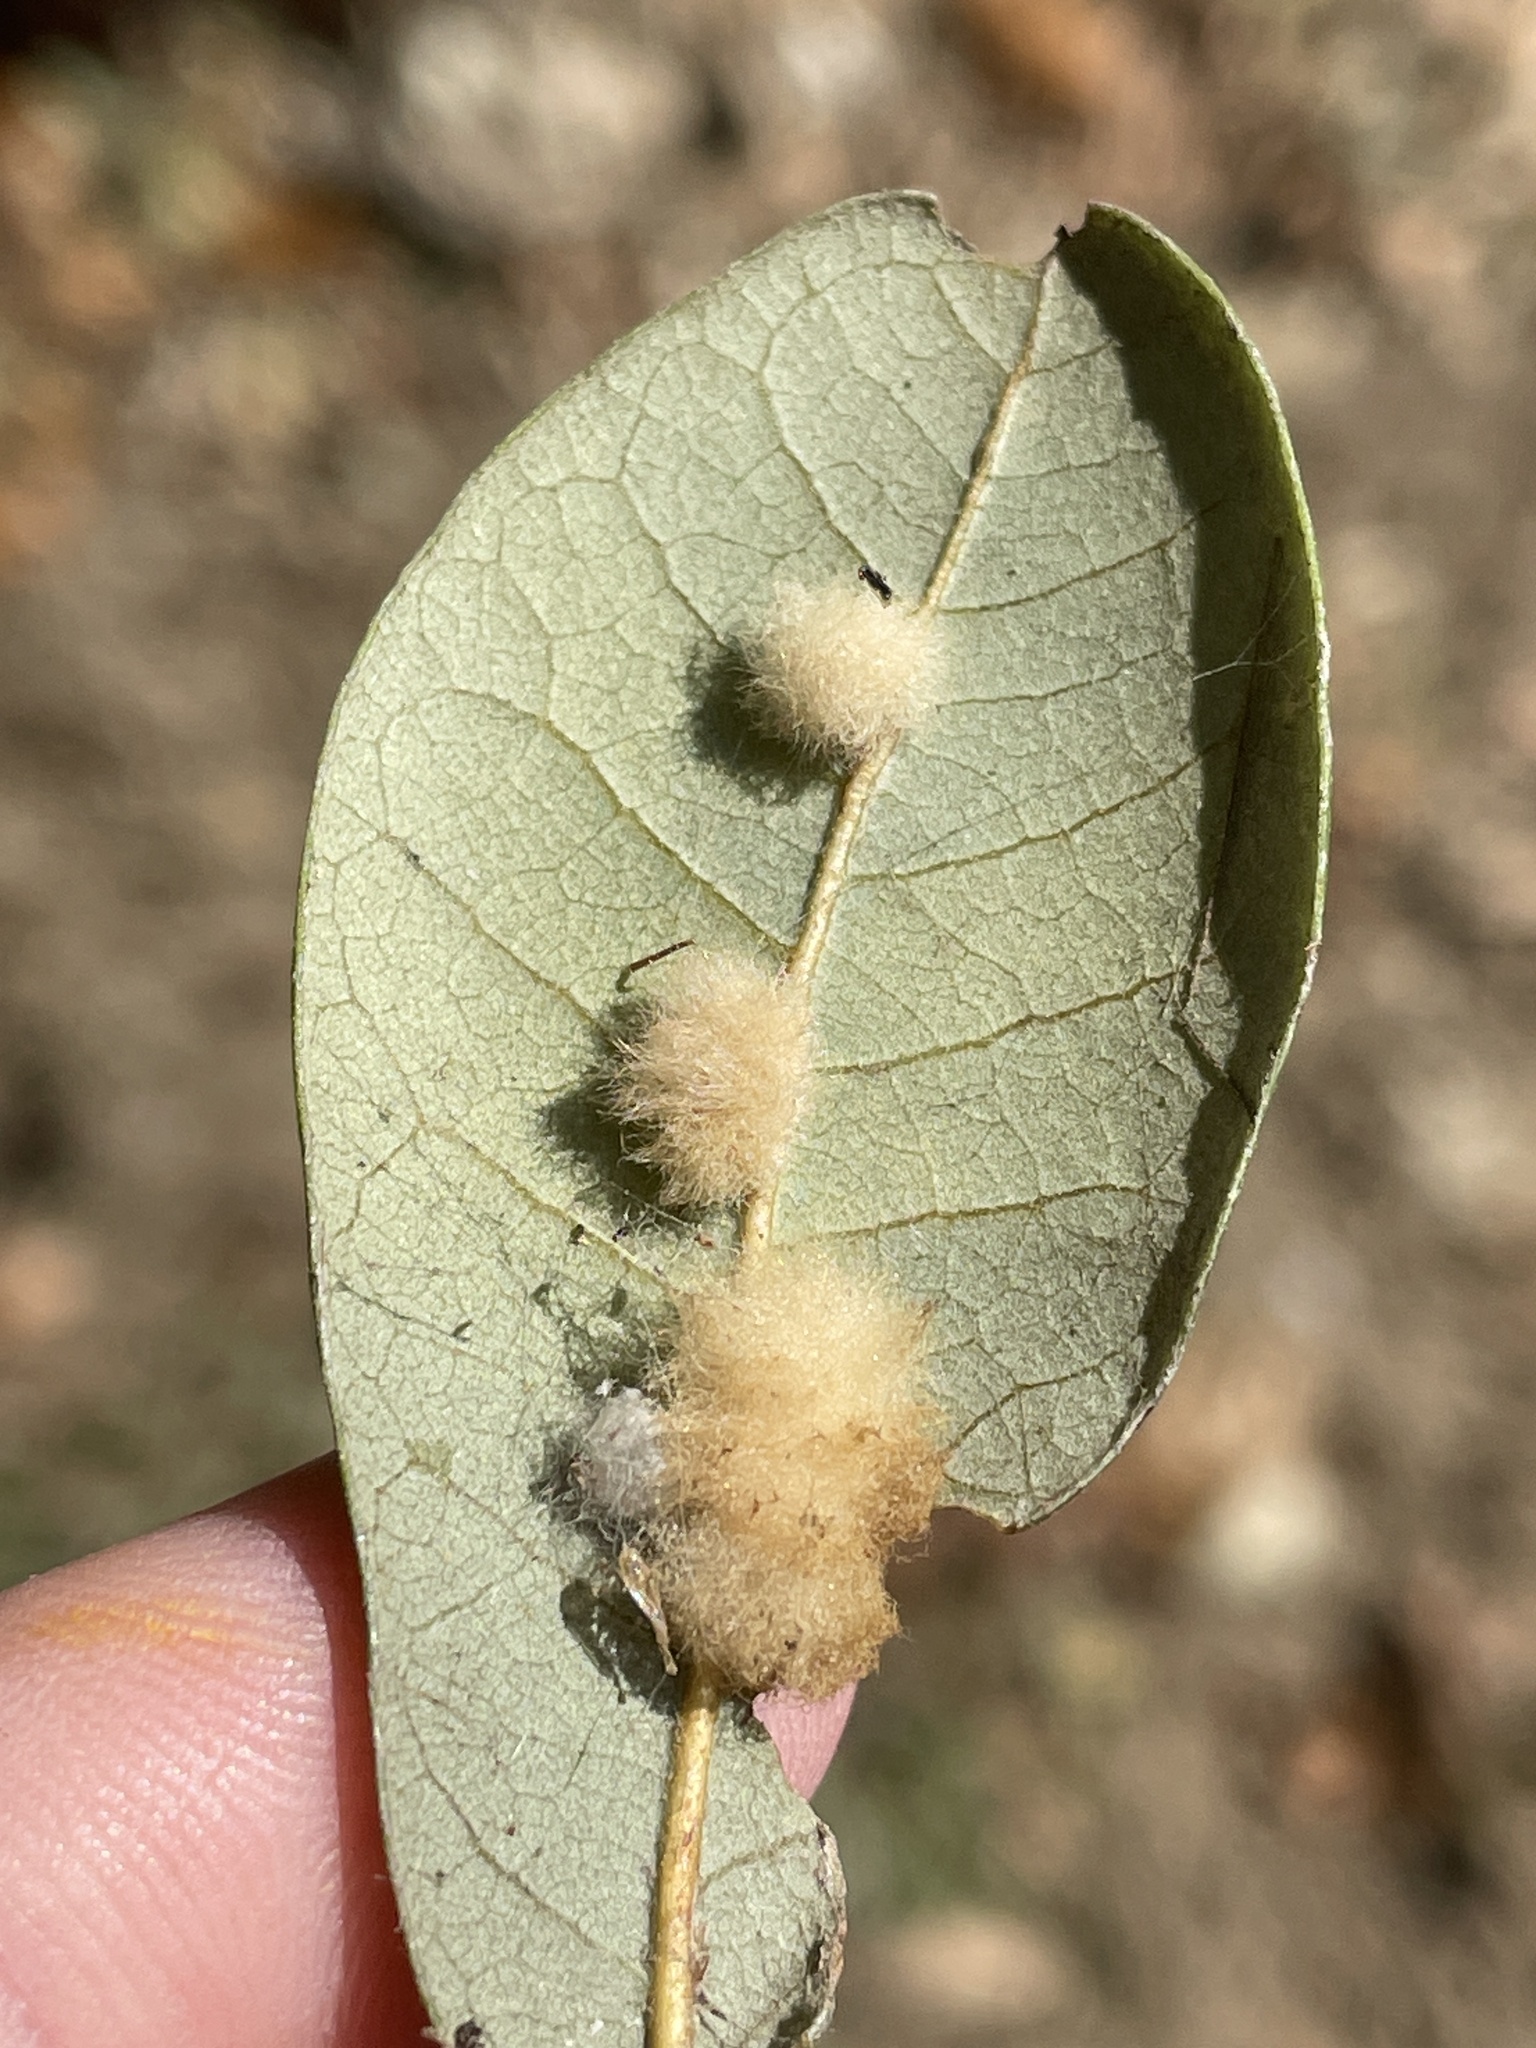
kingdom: Animalia
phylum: Arthropoda
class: Insecta
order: Hymenoptera
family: Cynipidae
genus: Andricus
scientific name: Andricus Druon quercuslanigerum
